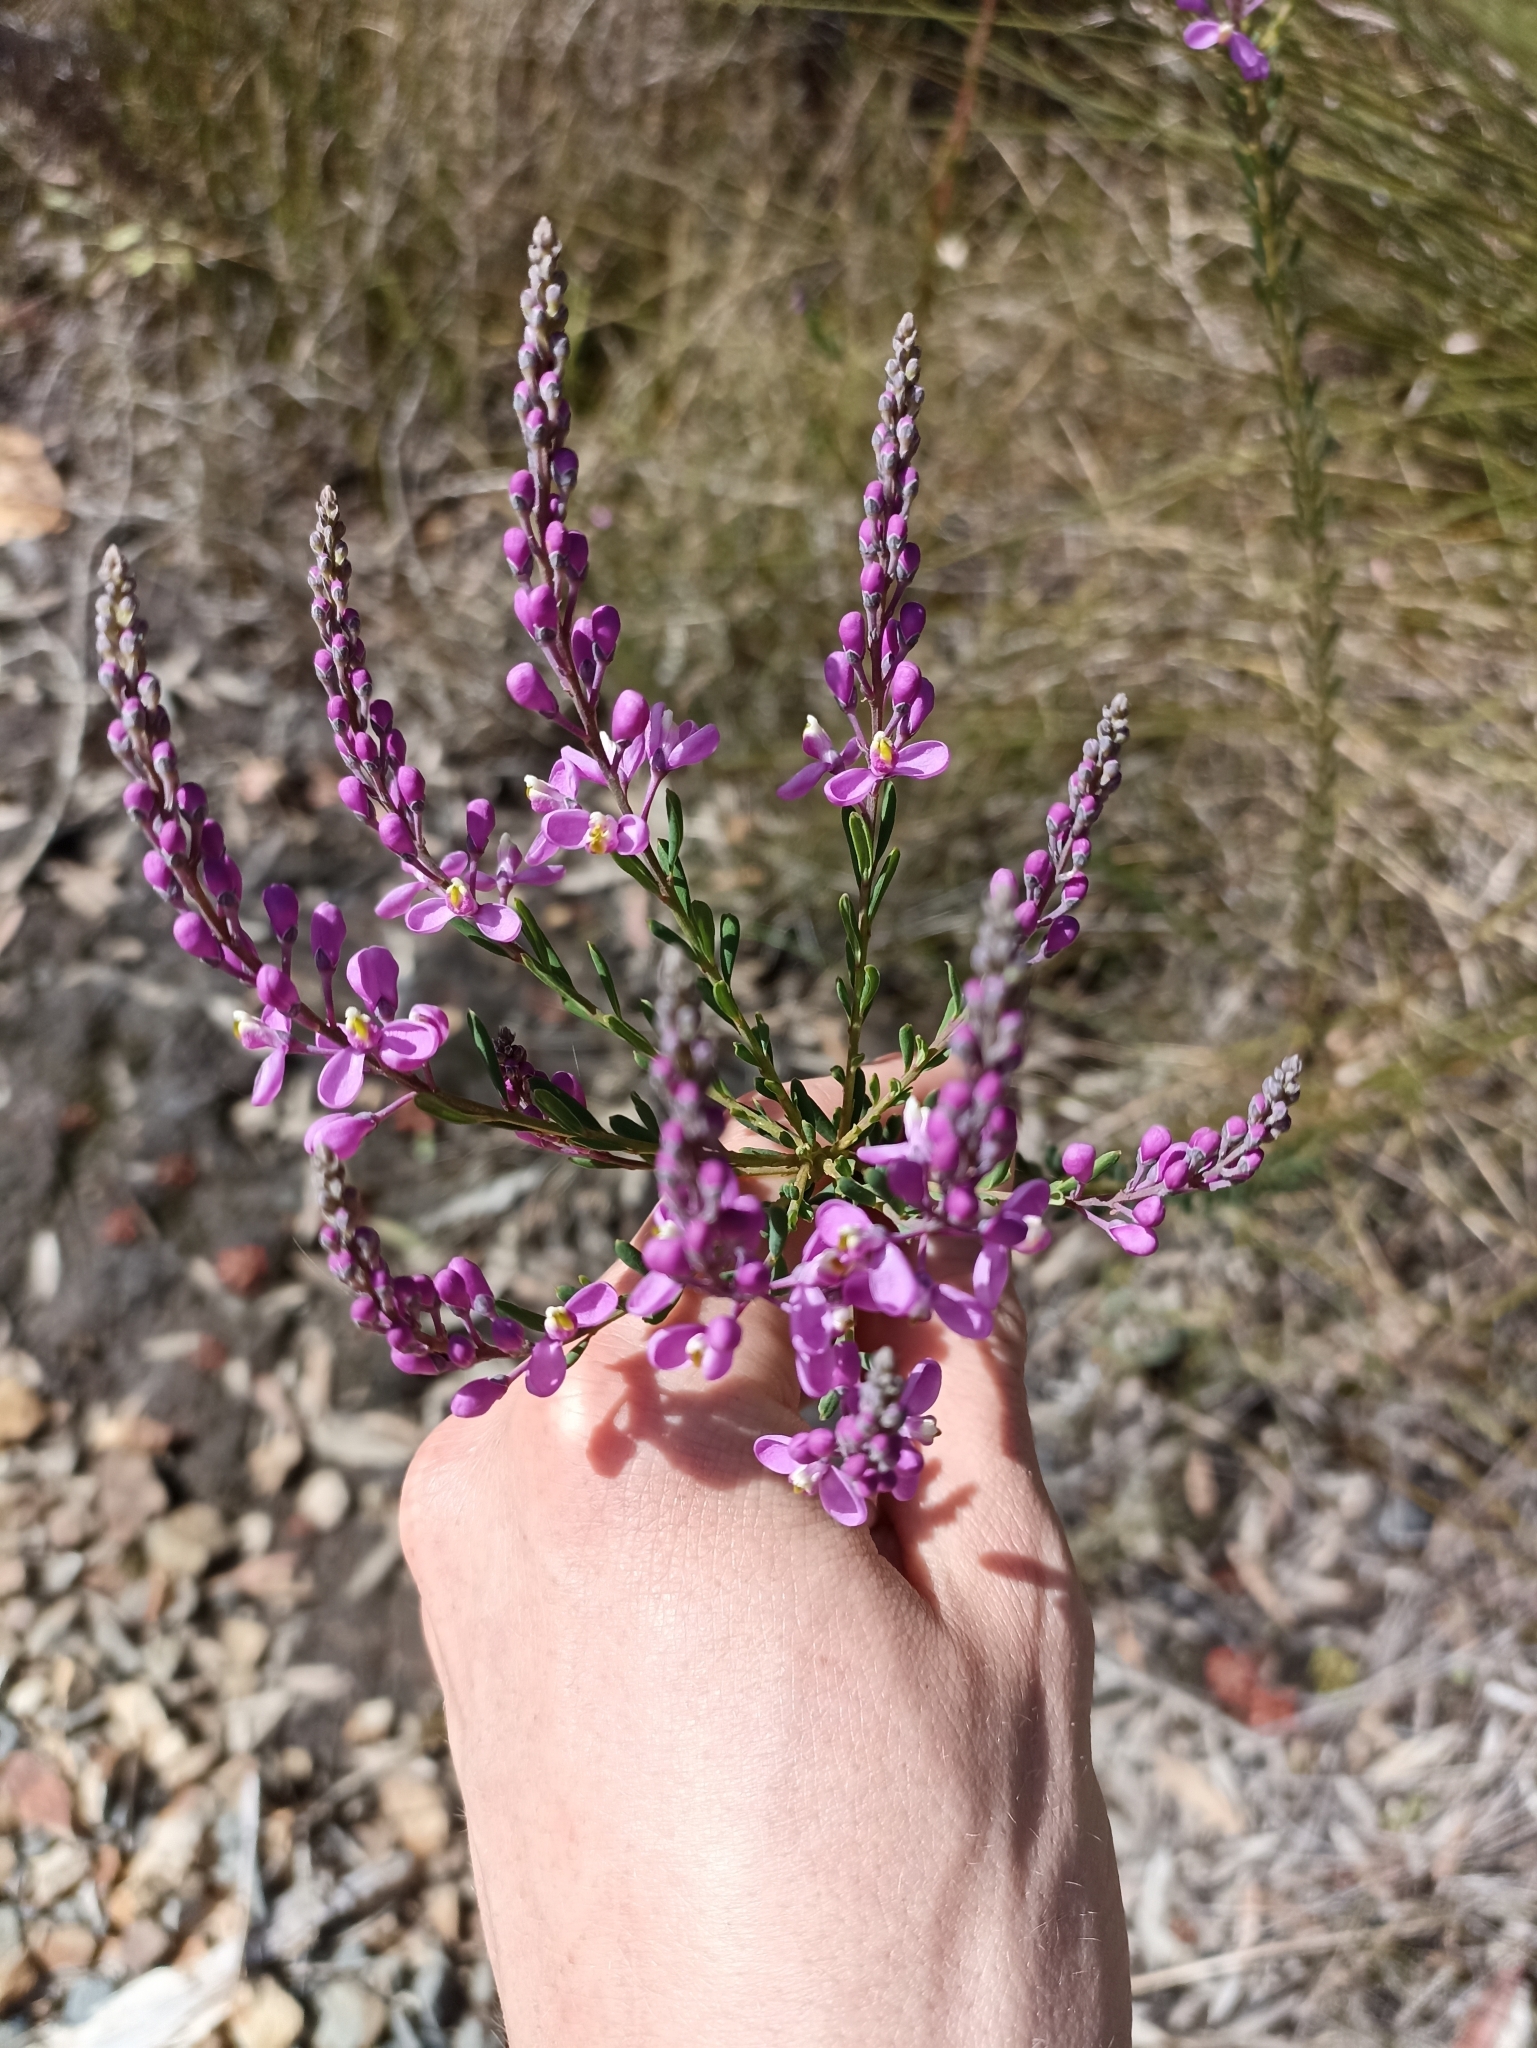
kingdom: Plantae
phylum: Tracheophyta
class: Magnoliopsida
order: Fabales
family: Polygalaceae
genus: Comesperma
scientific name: Comesperma ericinum
